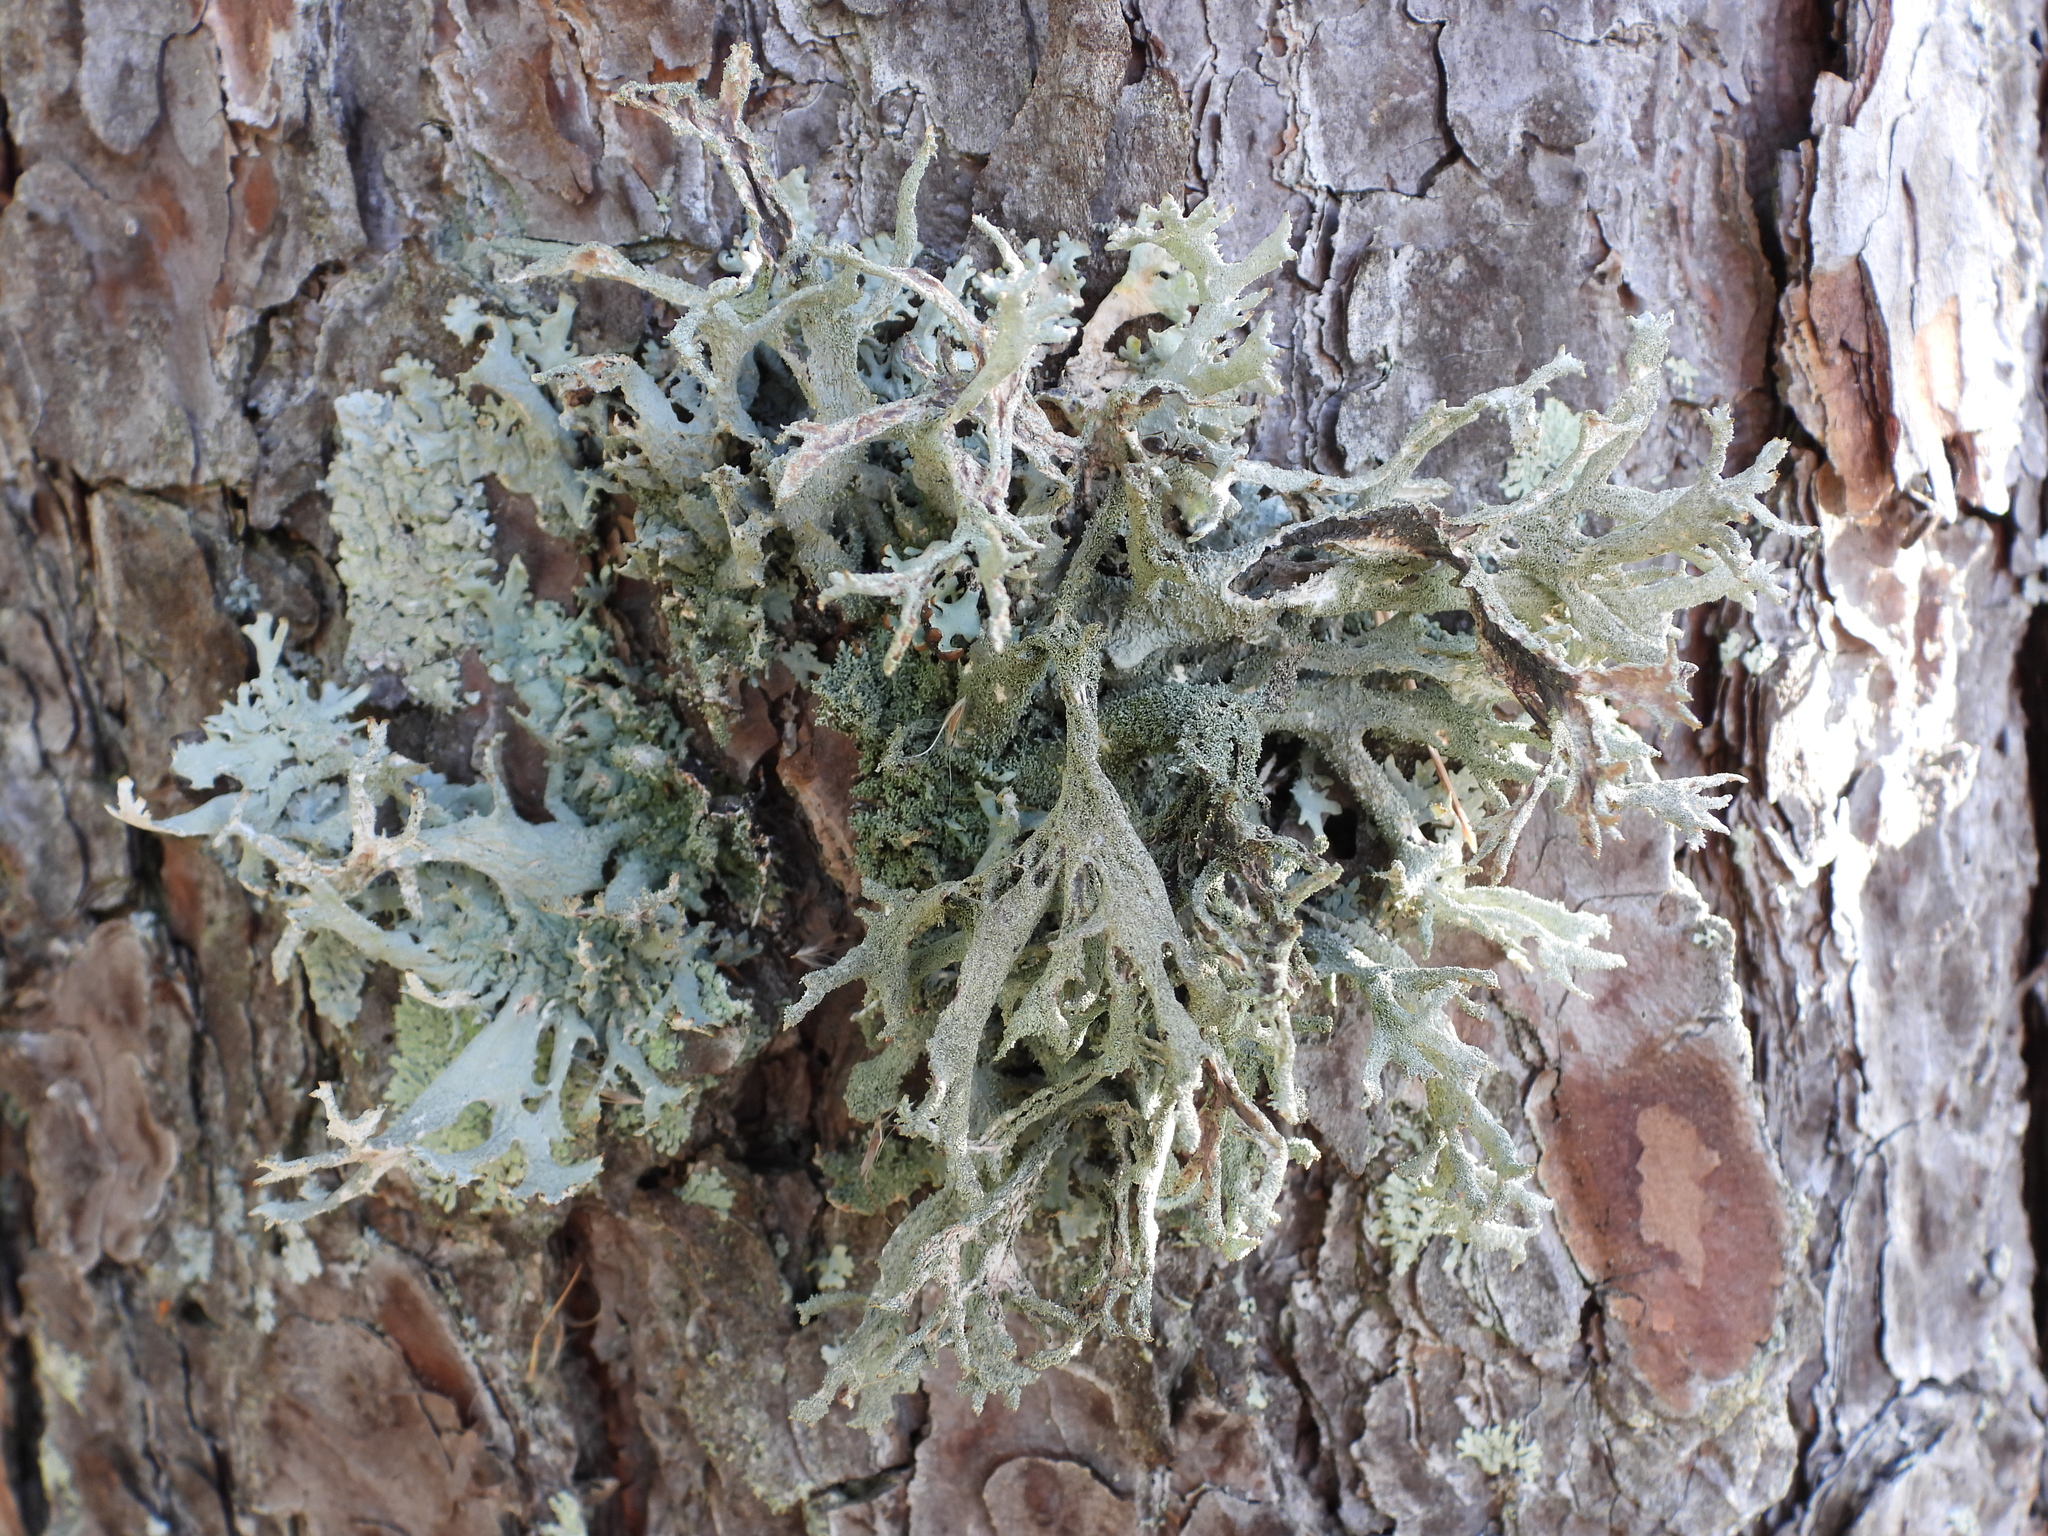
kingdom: Fungi
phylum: Ascomycota
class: Lecanoromycetes
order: Lecanorales
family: Parmeliaceae
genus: Pseudevernia
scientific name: Pseudevernia furfuracea
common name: Tree moss
